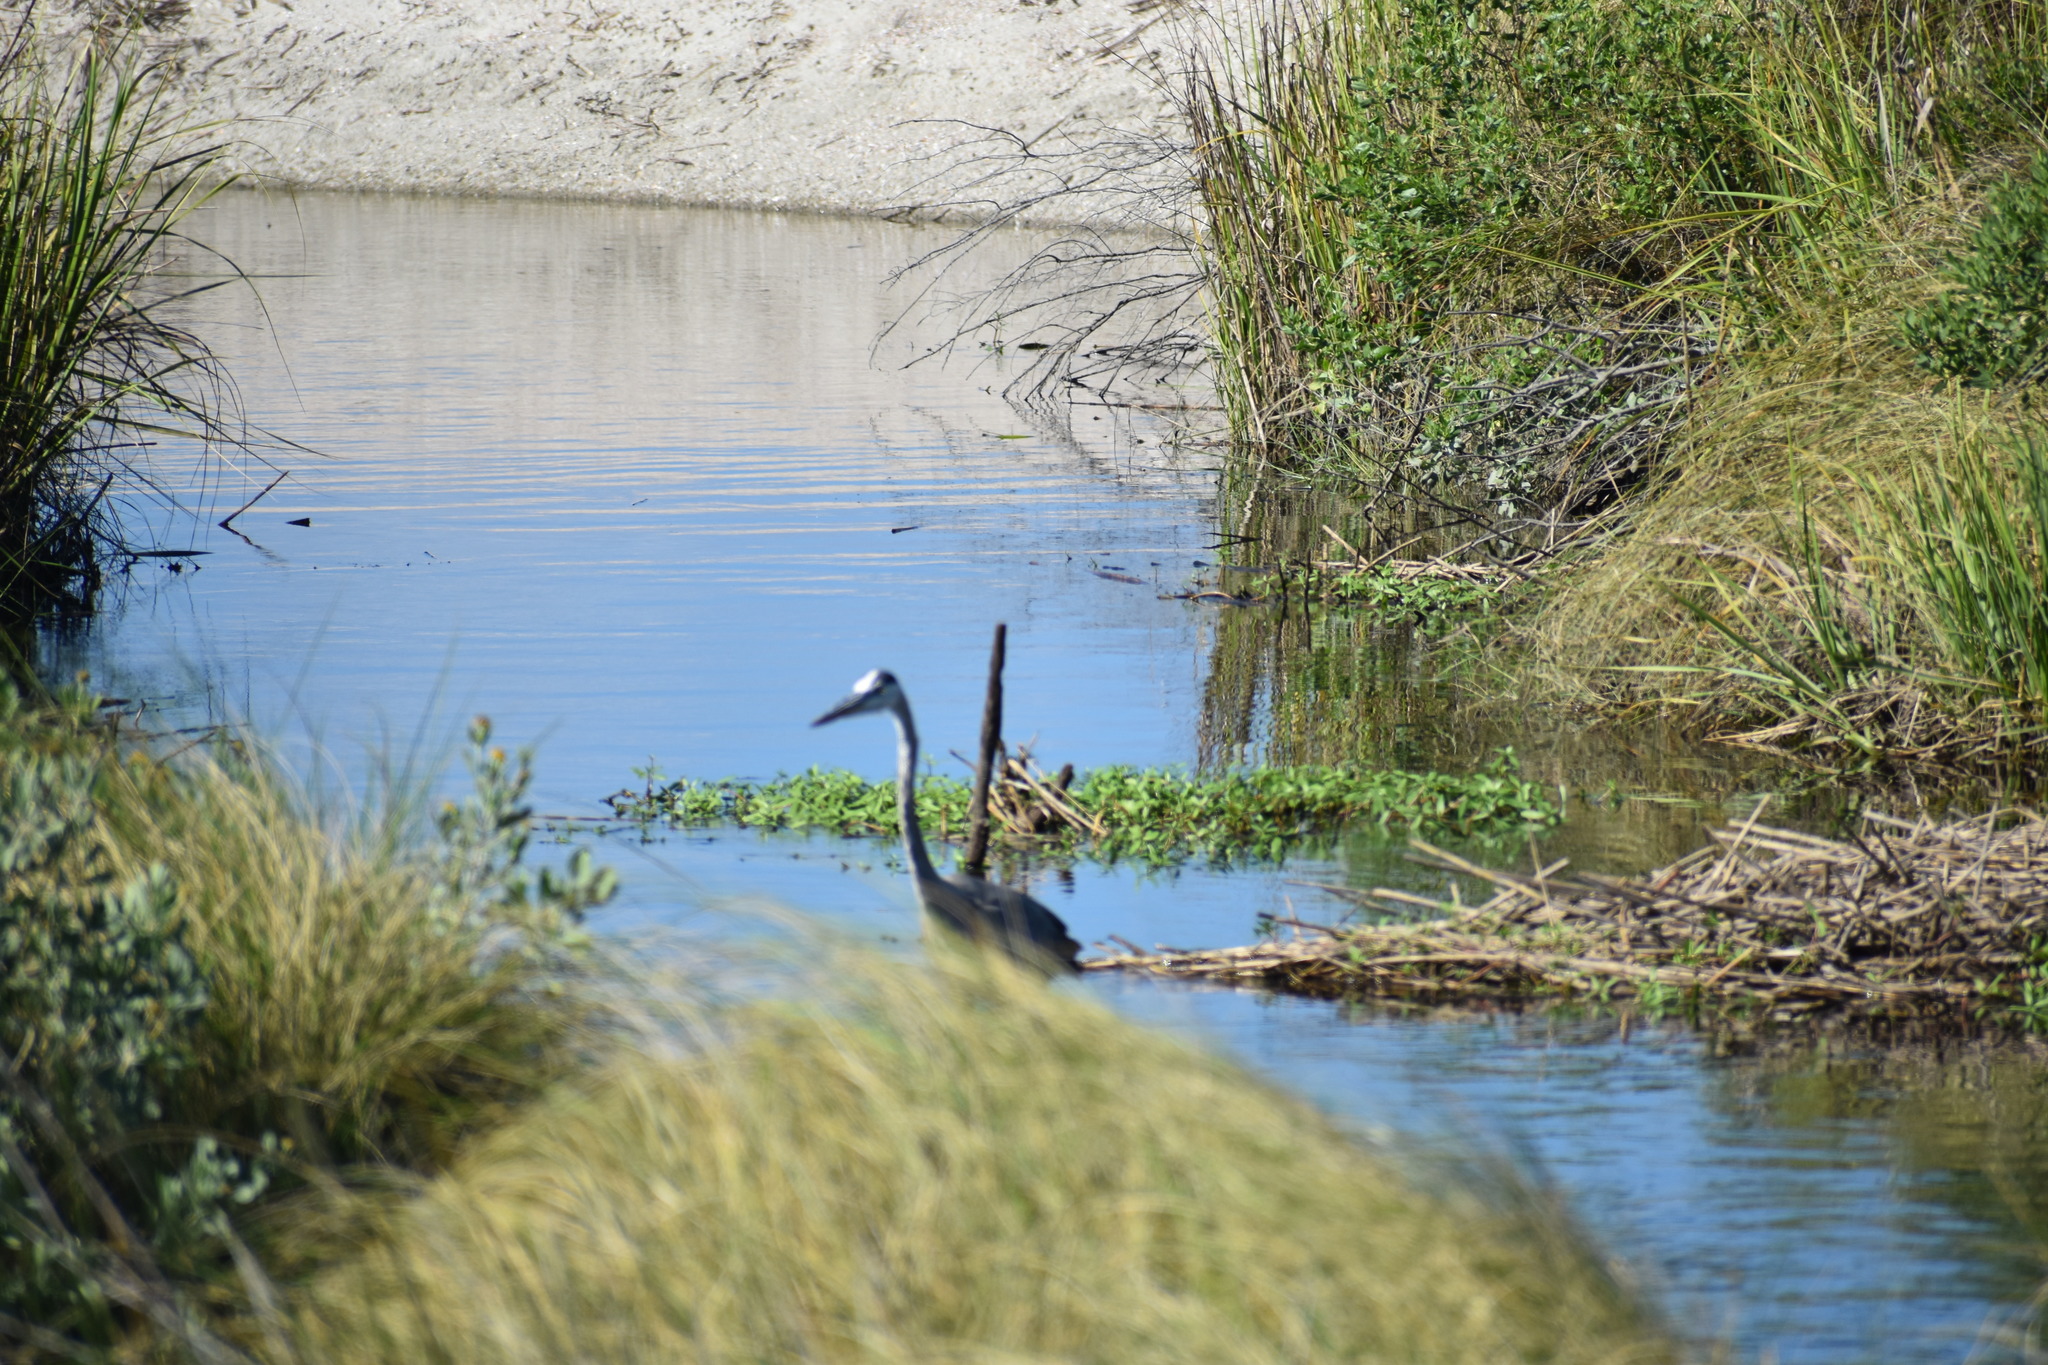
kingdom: Animalia
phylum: Chordata
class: Aves
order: Pelecaniformes
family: Ardeidae
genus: Ardea
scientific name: Ardea herodias
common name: Great blue heron
